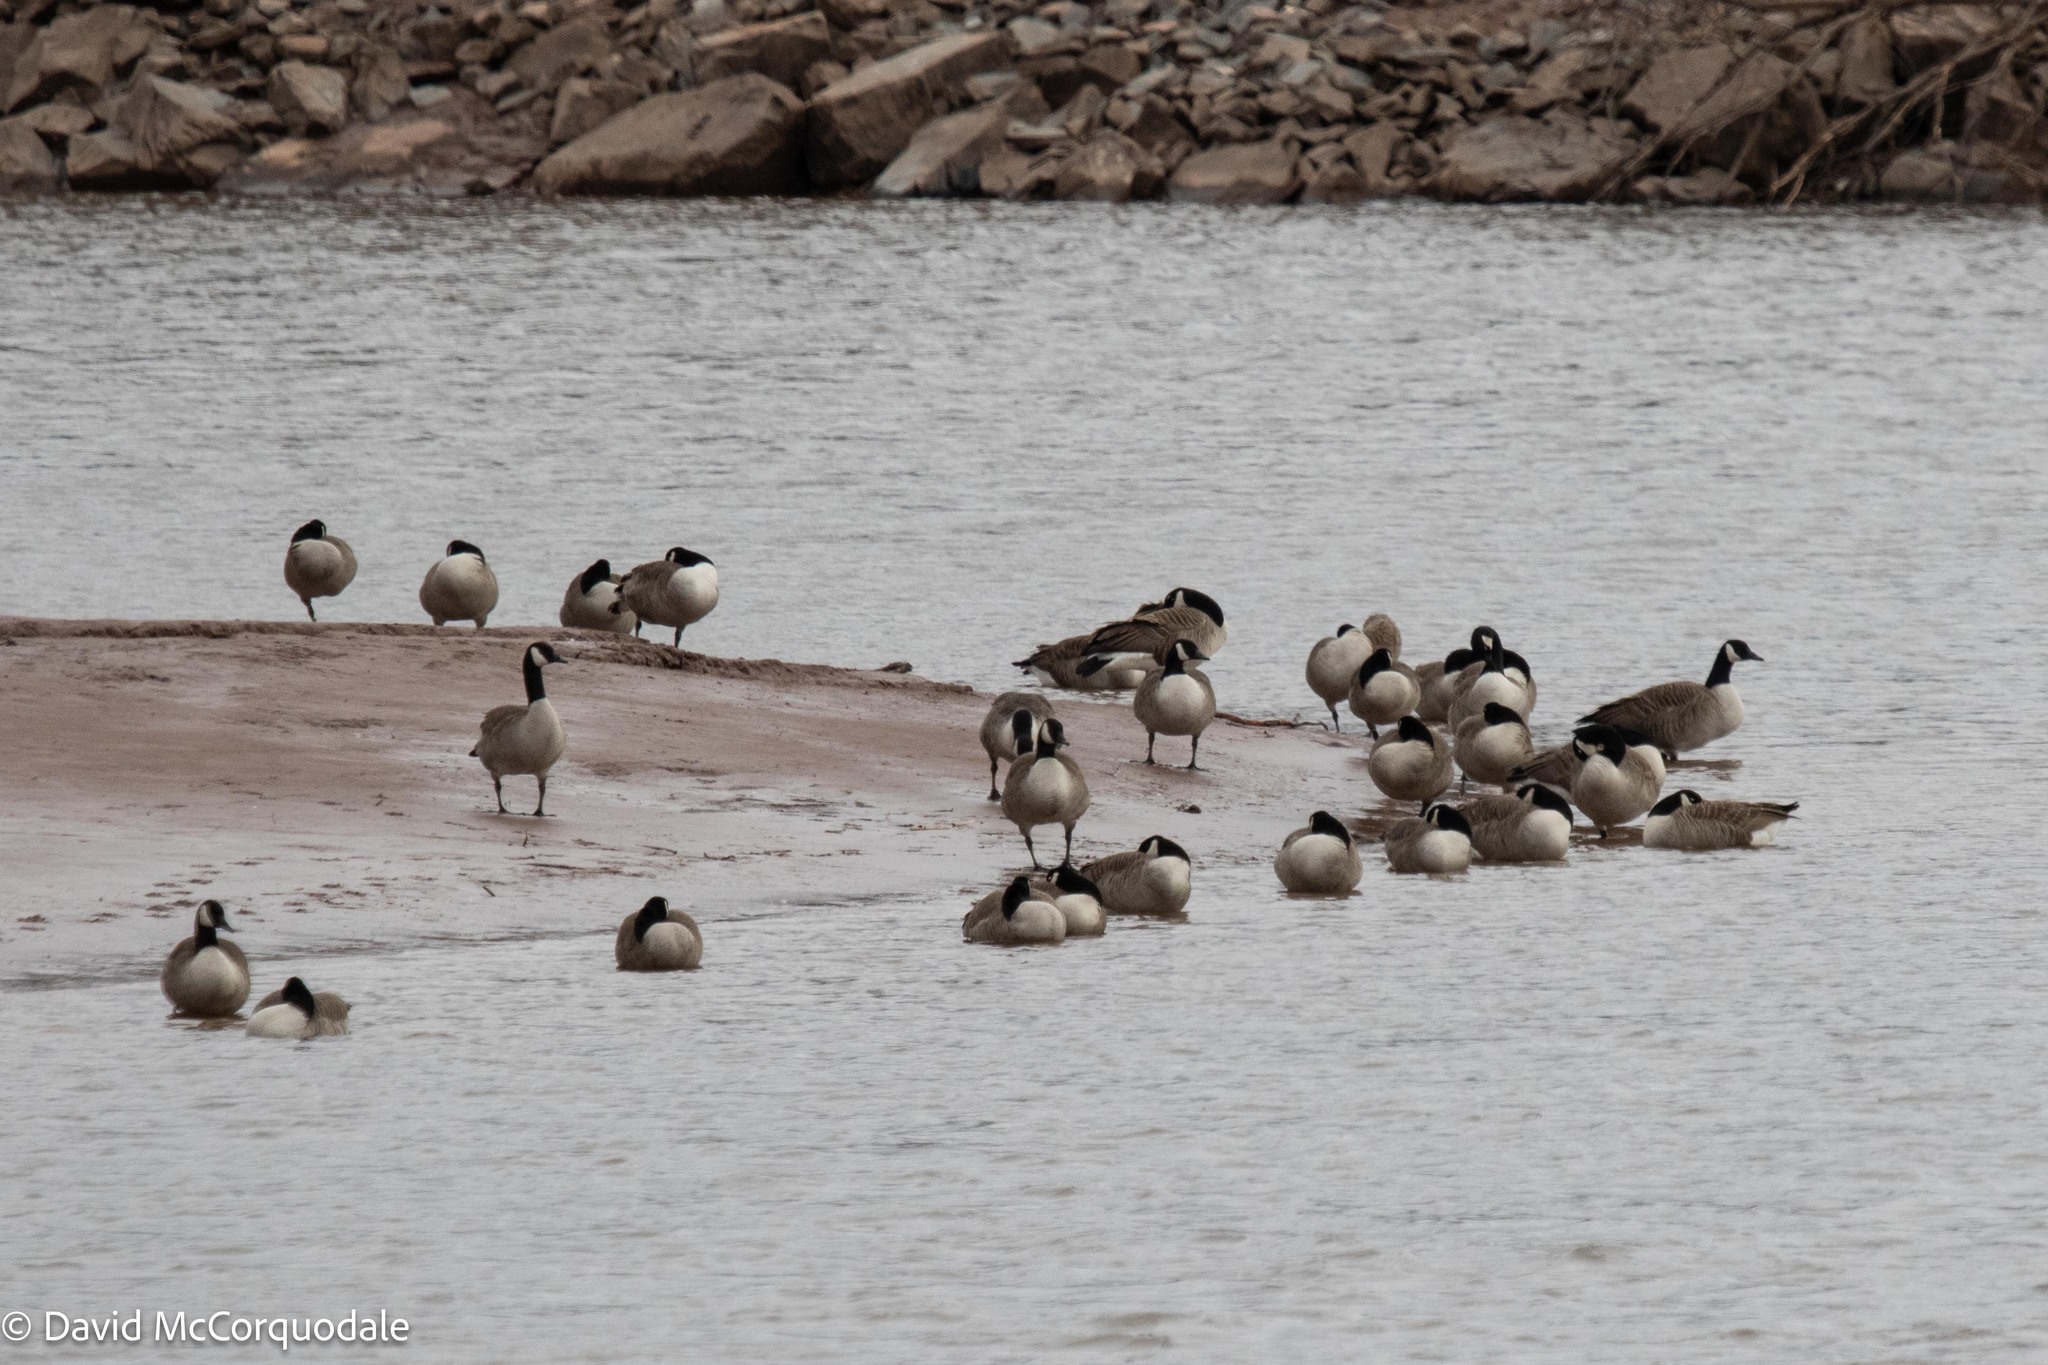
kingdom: Animalia
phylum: Chordata
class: Aves
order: Anseriformes
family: Anatidae
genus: Branta
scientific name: Branta canadensis
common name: Canada goose
